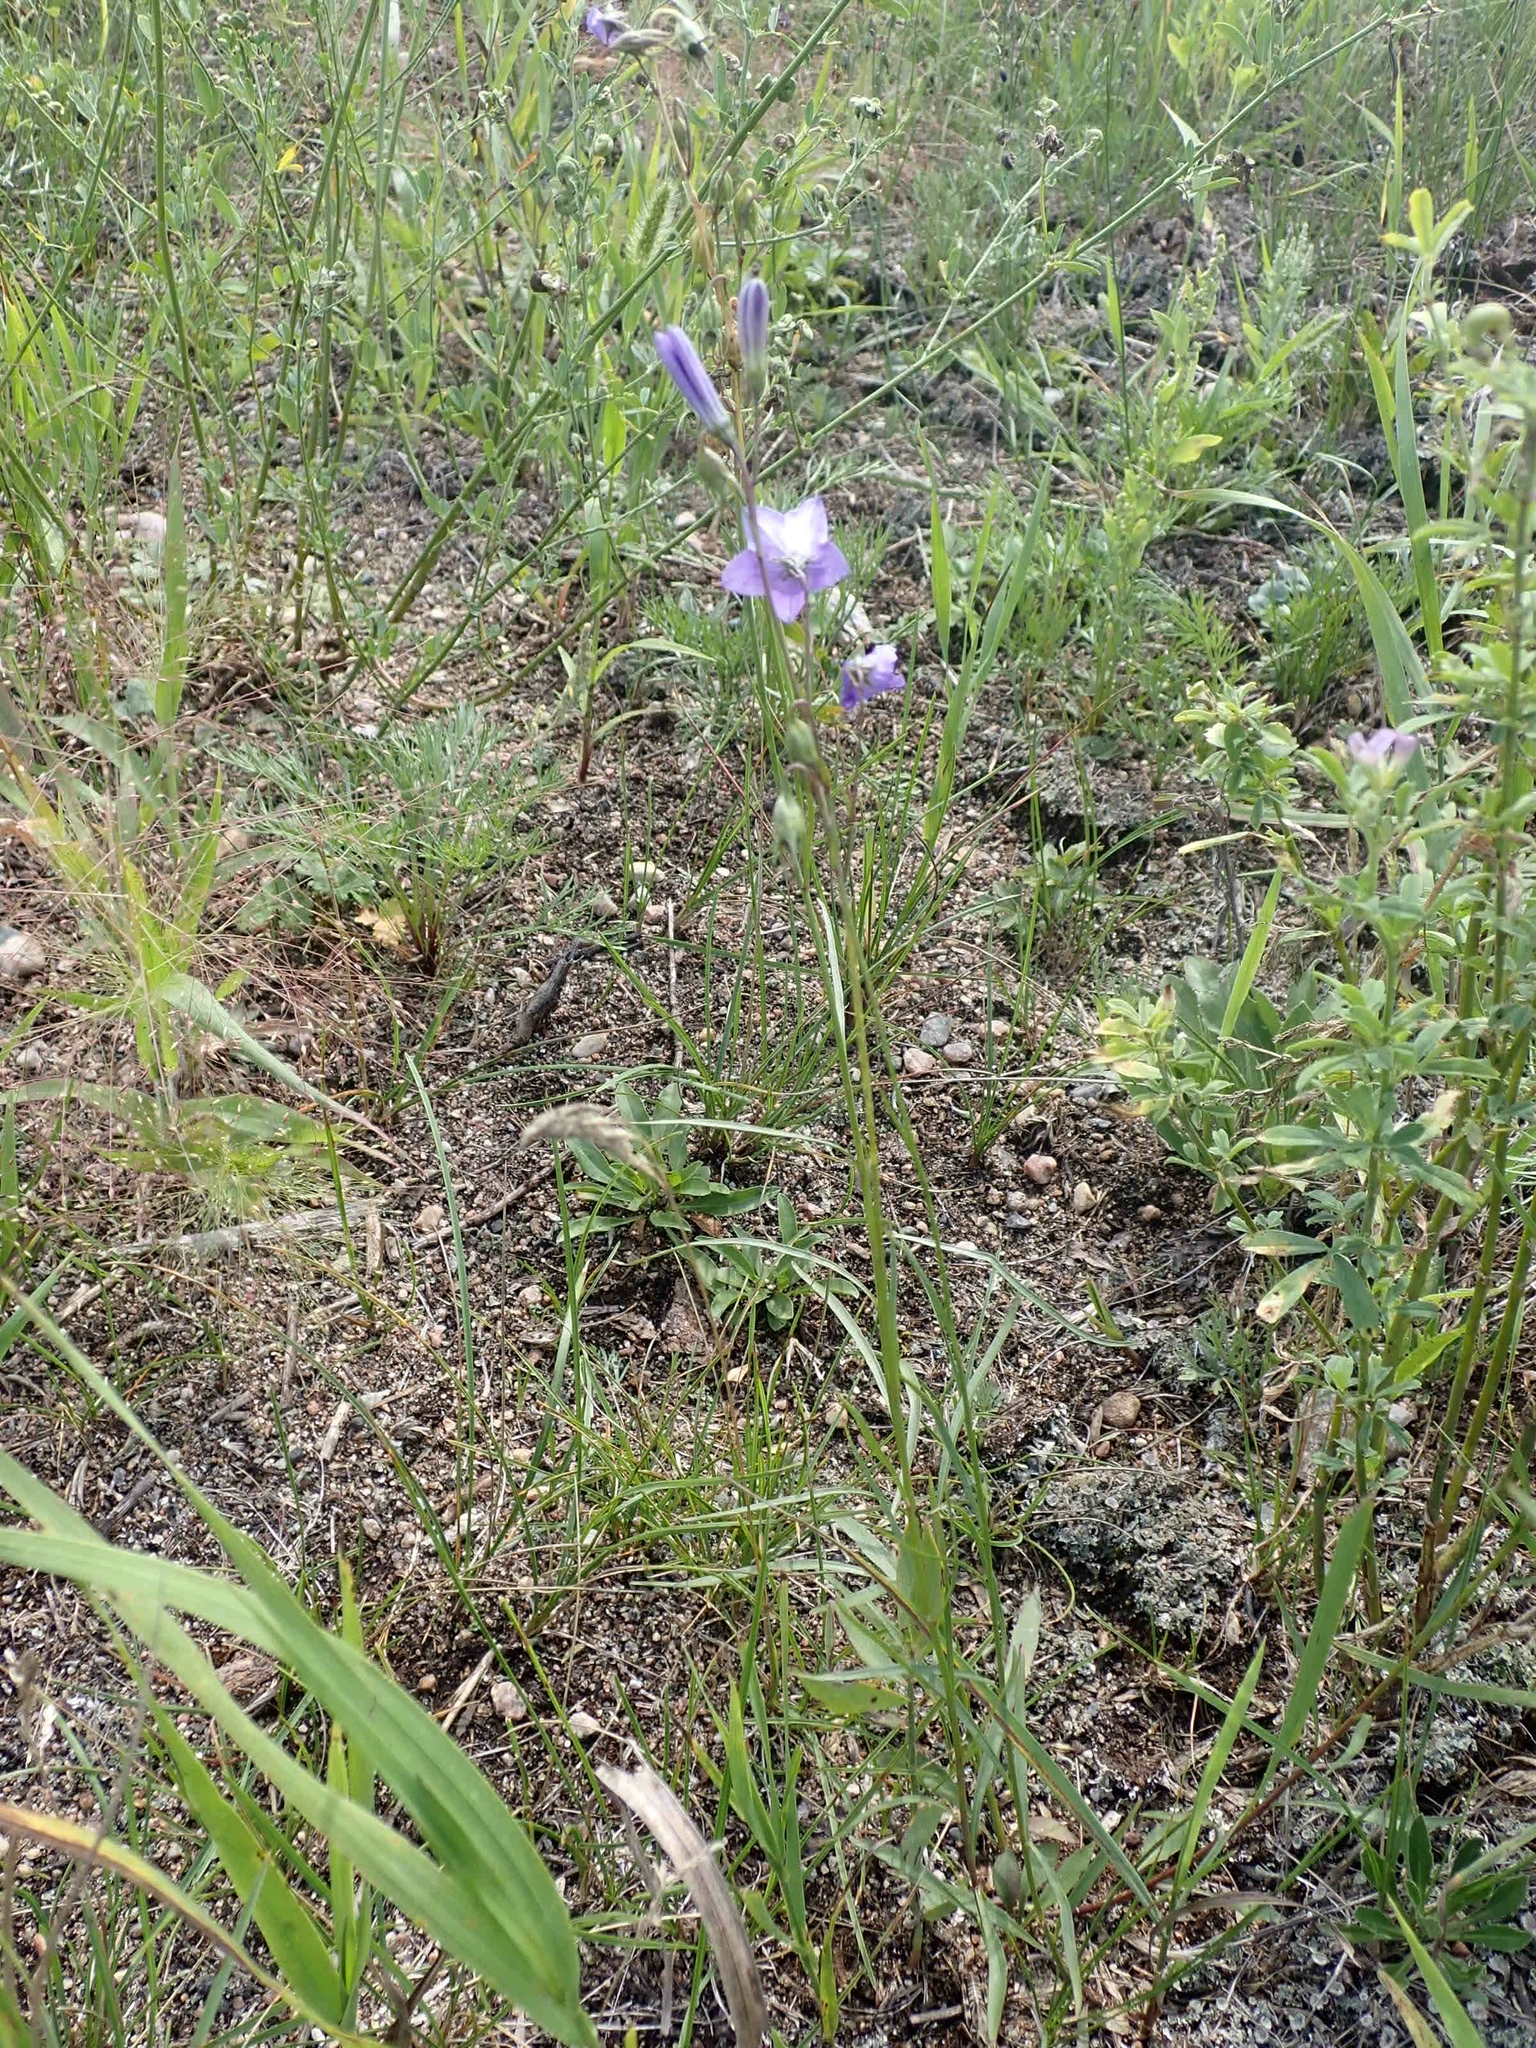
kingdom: Plantae
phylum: Tracheophyta
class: Magnoliopsida
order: Asterales
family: Campanulaceae
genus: Campanula
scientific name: Campanula petiolata
